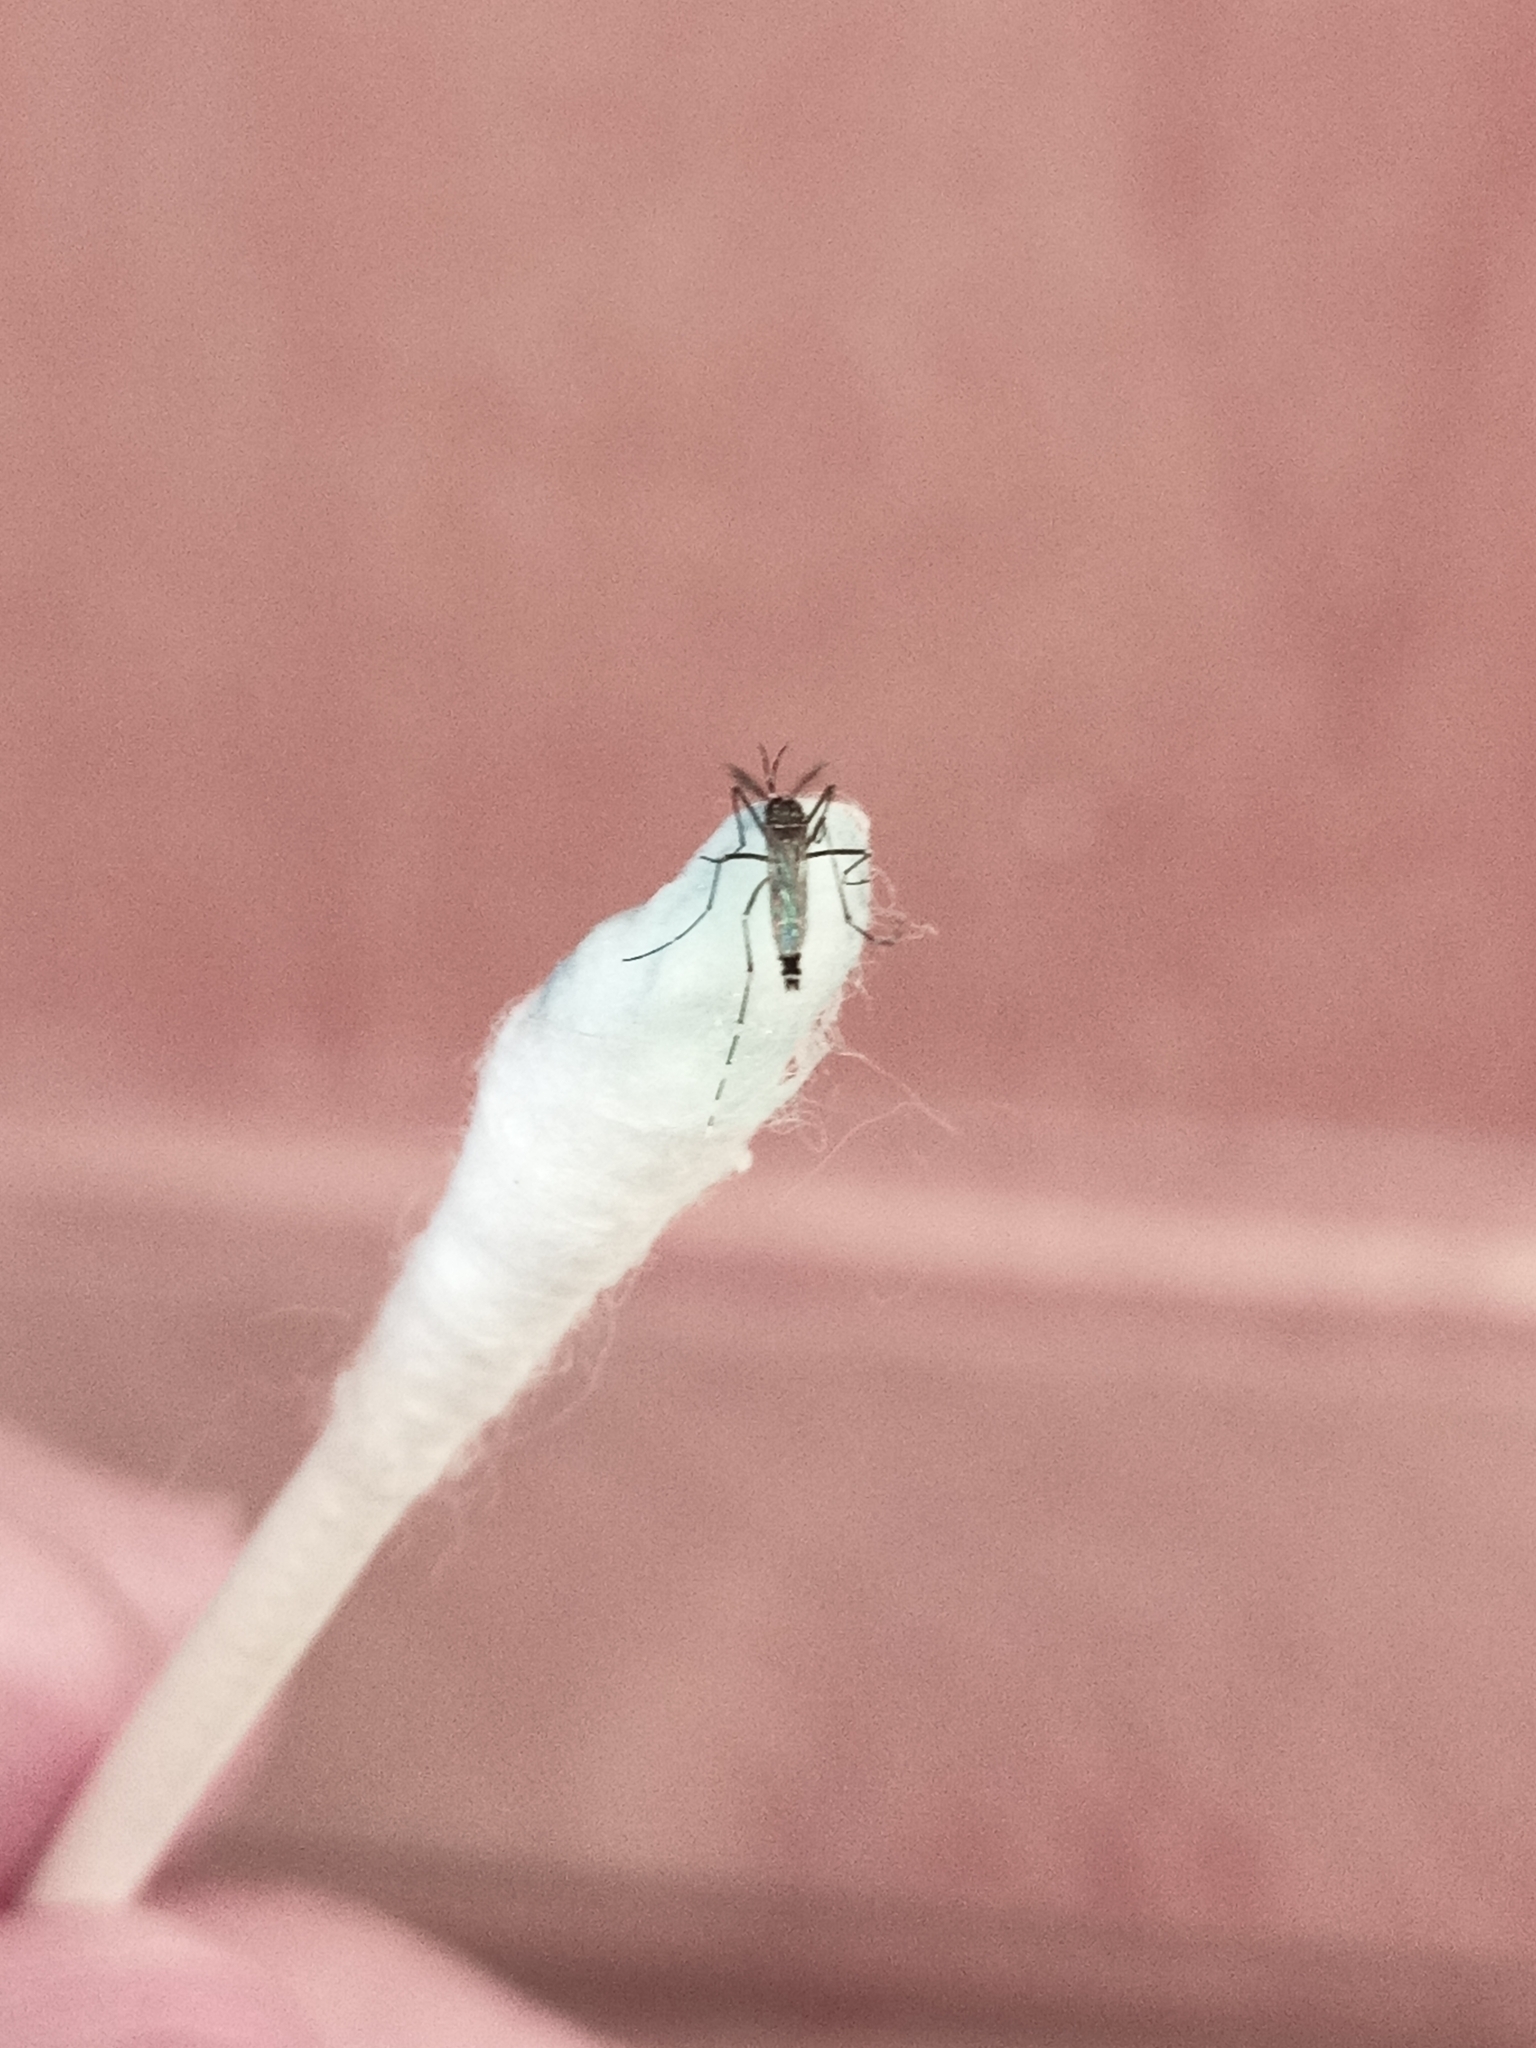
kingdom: Animalia
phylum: Arthropoda
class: Insecta
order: Diptera
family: Culicidae
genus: Aedes
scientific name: Aedes albopictus
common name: Tiger mosquito
